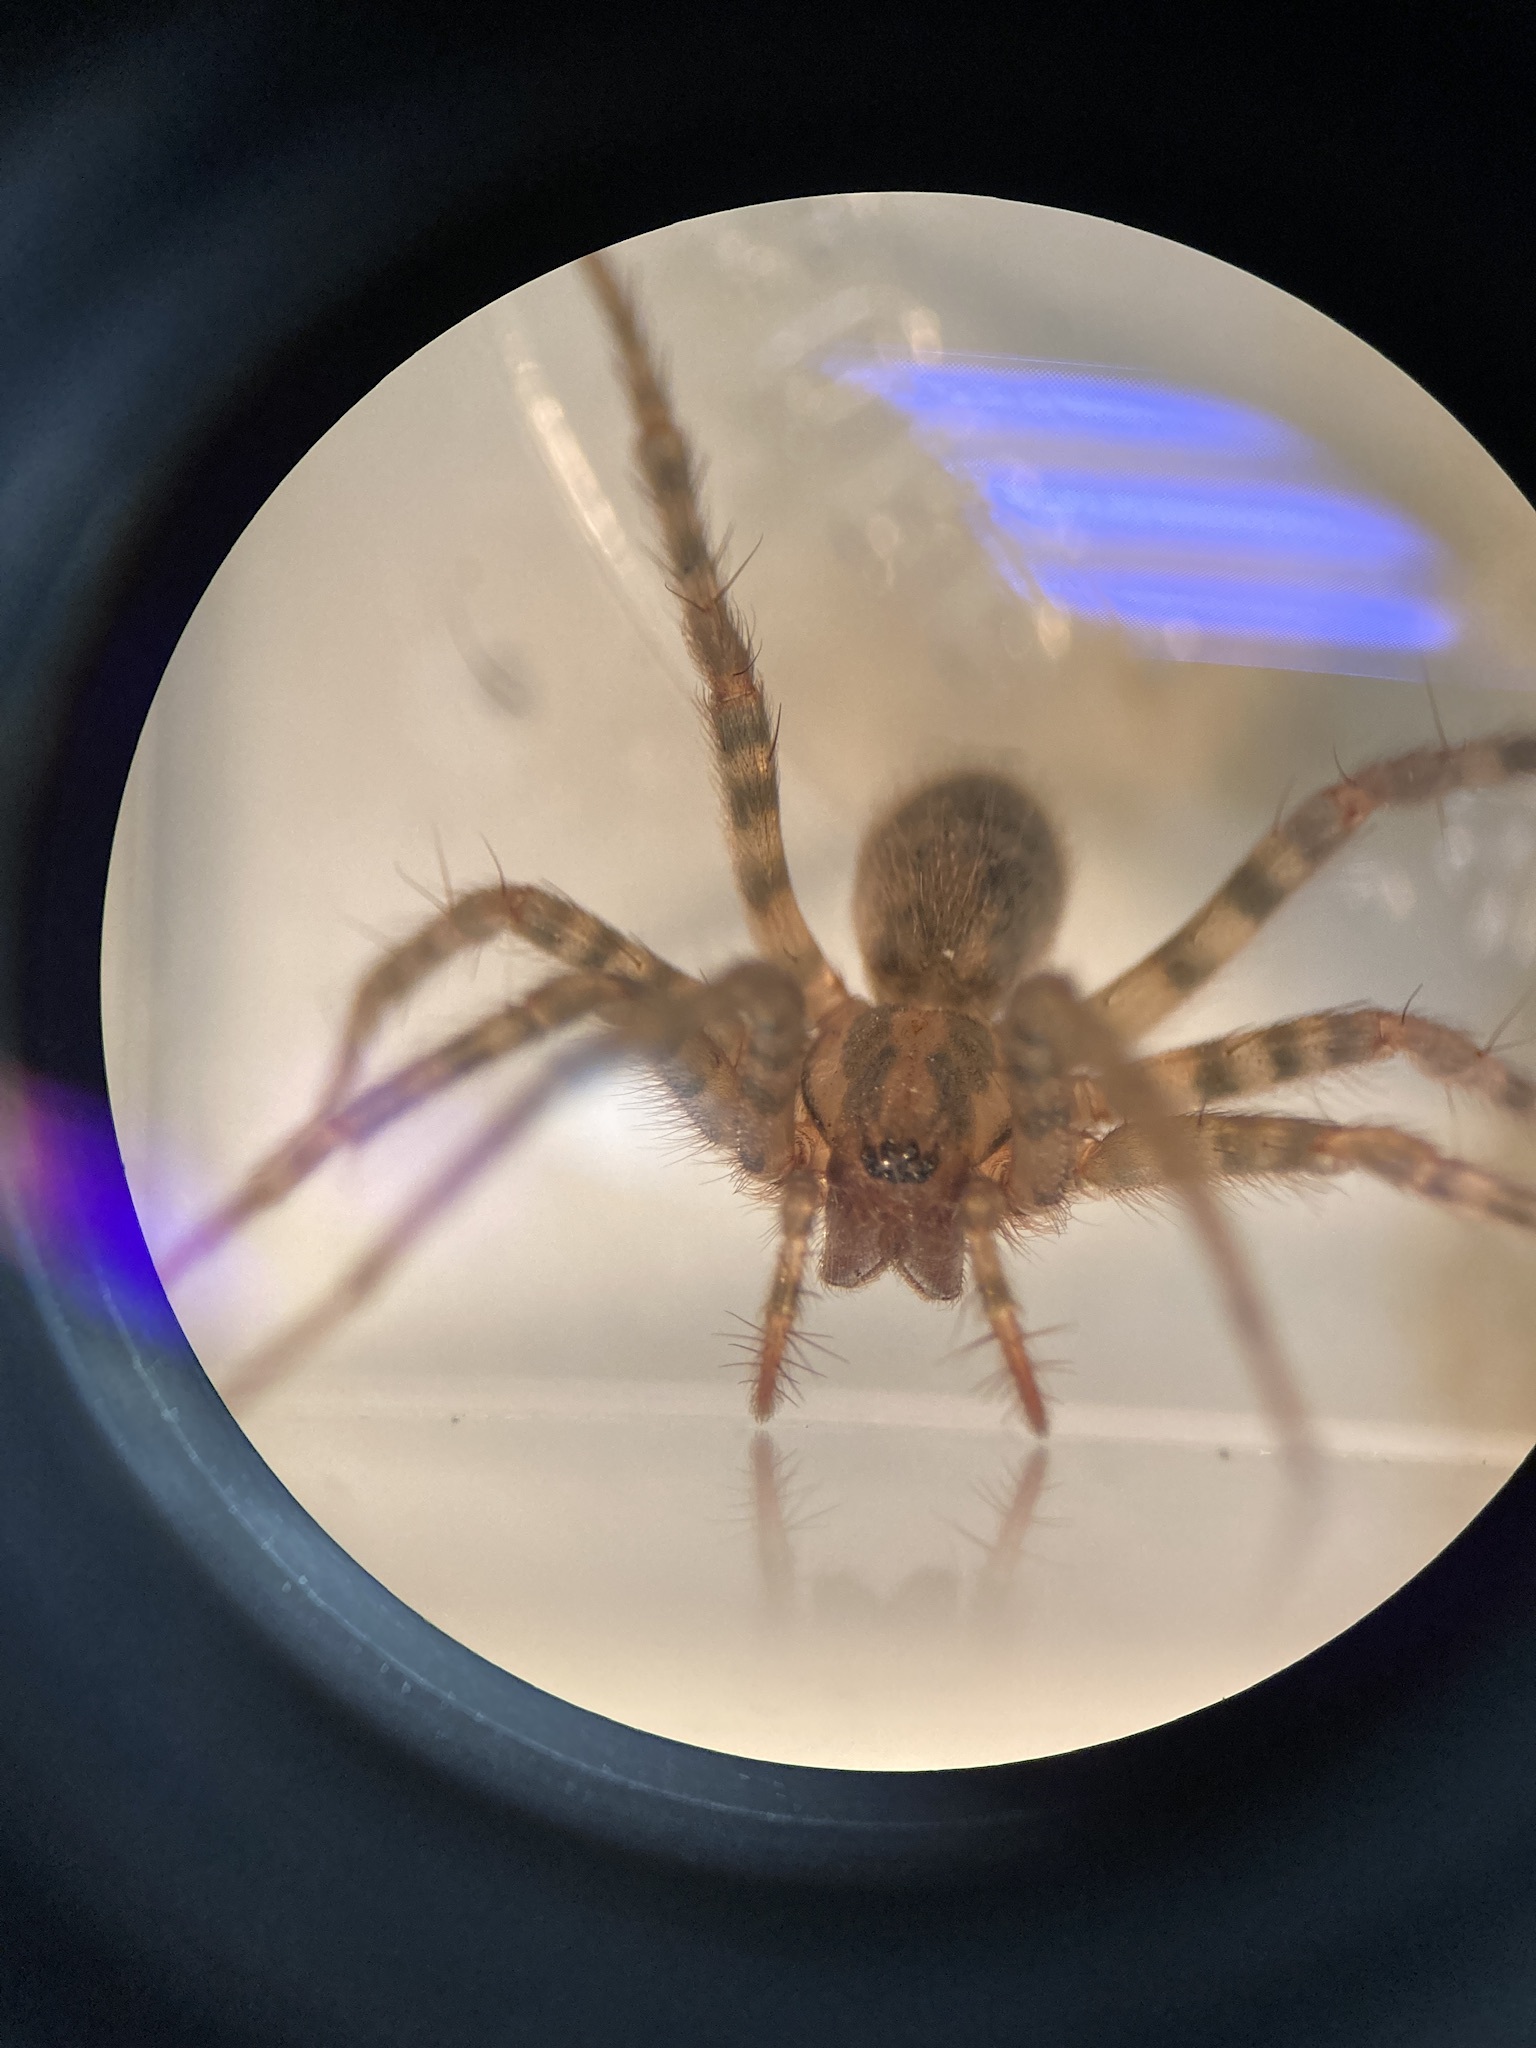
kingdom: Animalia
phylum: Arthropoda
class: Arachnida
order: Araneae
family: Agelenidae
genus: Tegenaria
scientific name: Tegenaria domestica
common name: Barn funnel weaver
